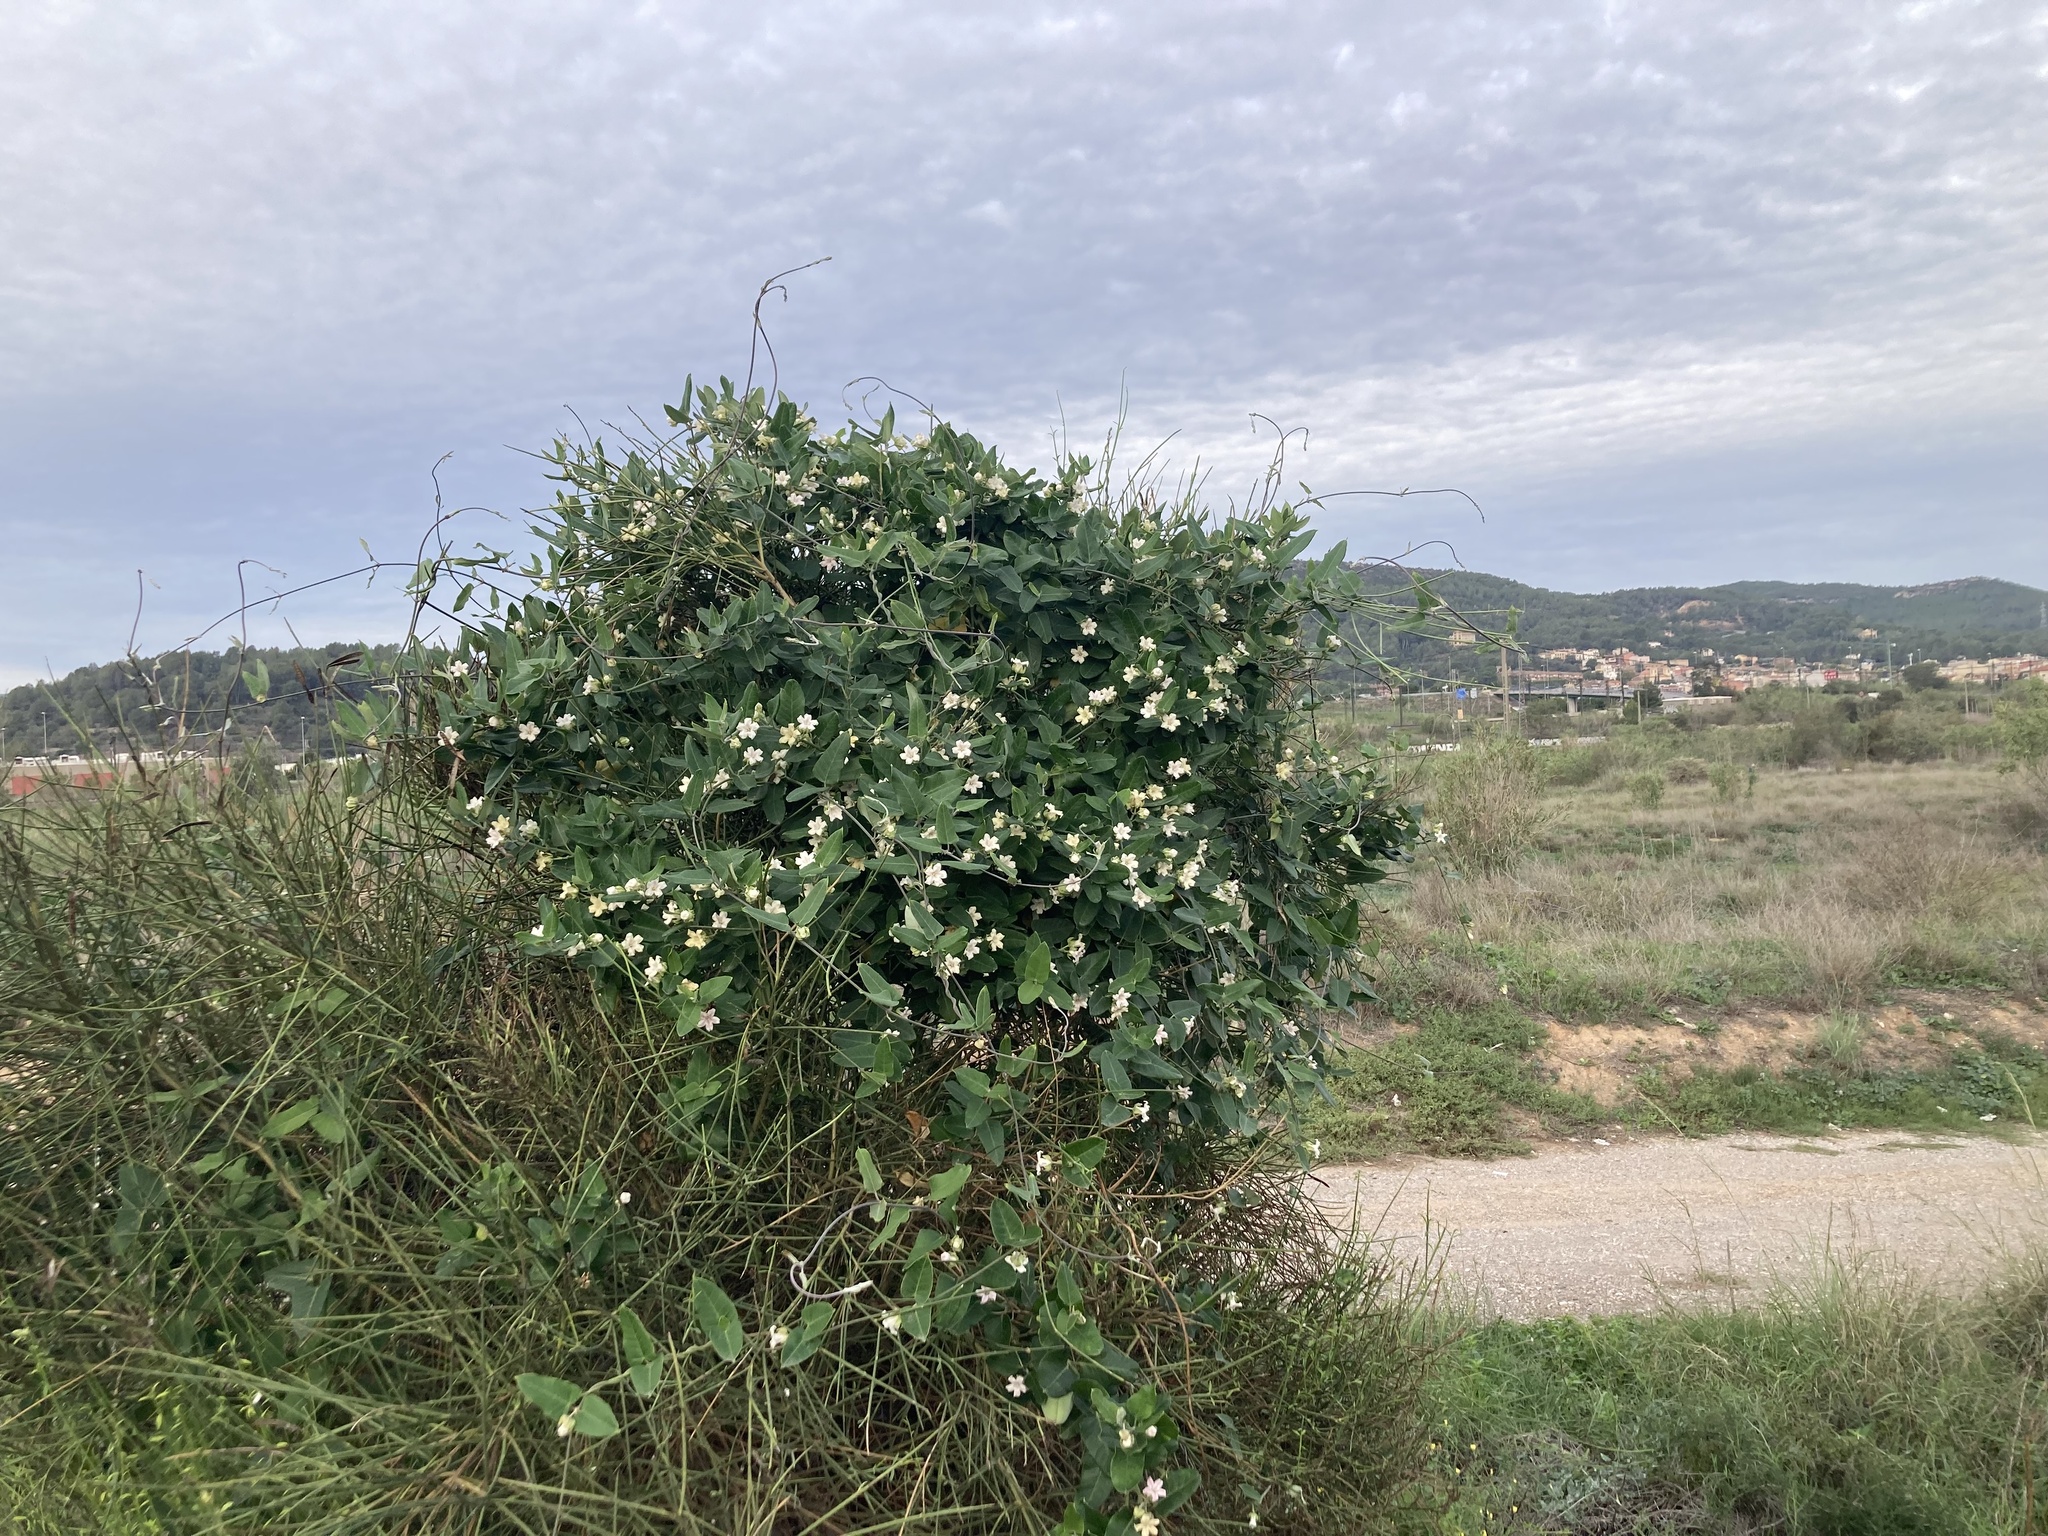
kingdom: Plantae
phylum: Tracheophyta
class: Magnoliopsida
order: Gentianales
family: Apocynaceae
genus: Araujia
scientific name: Araujia sericifera
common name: White bladderflower
